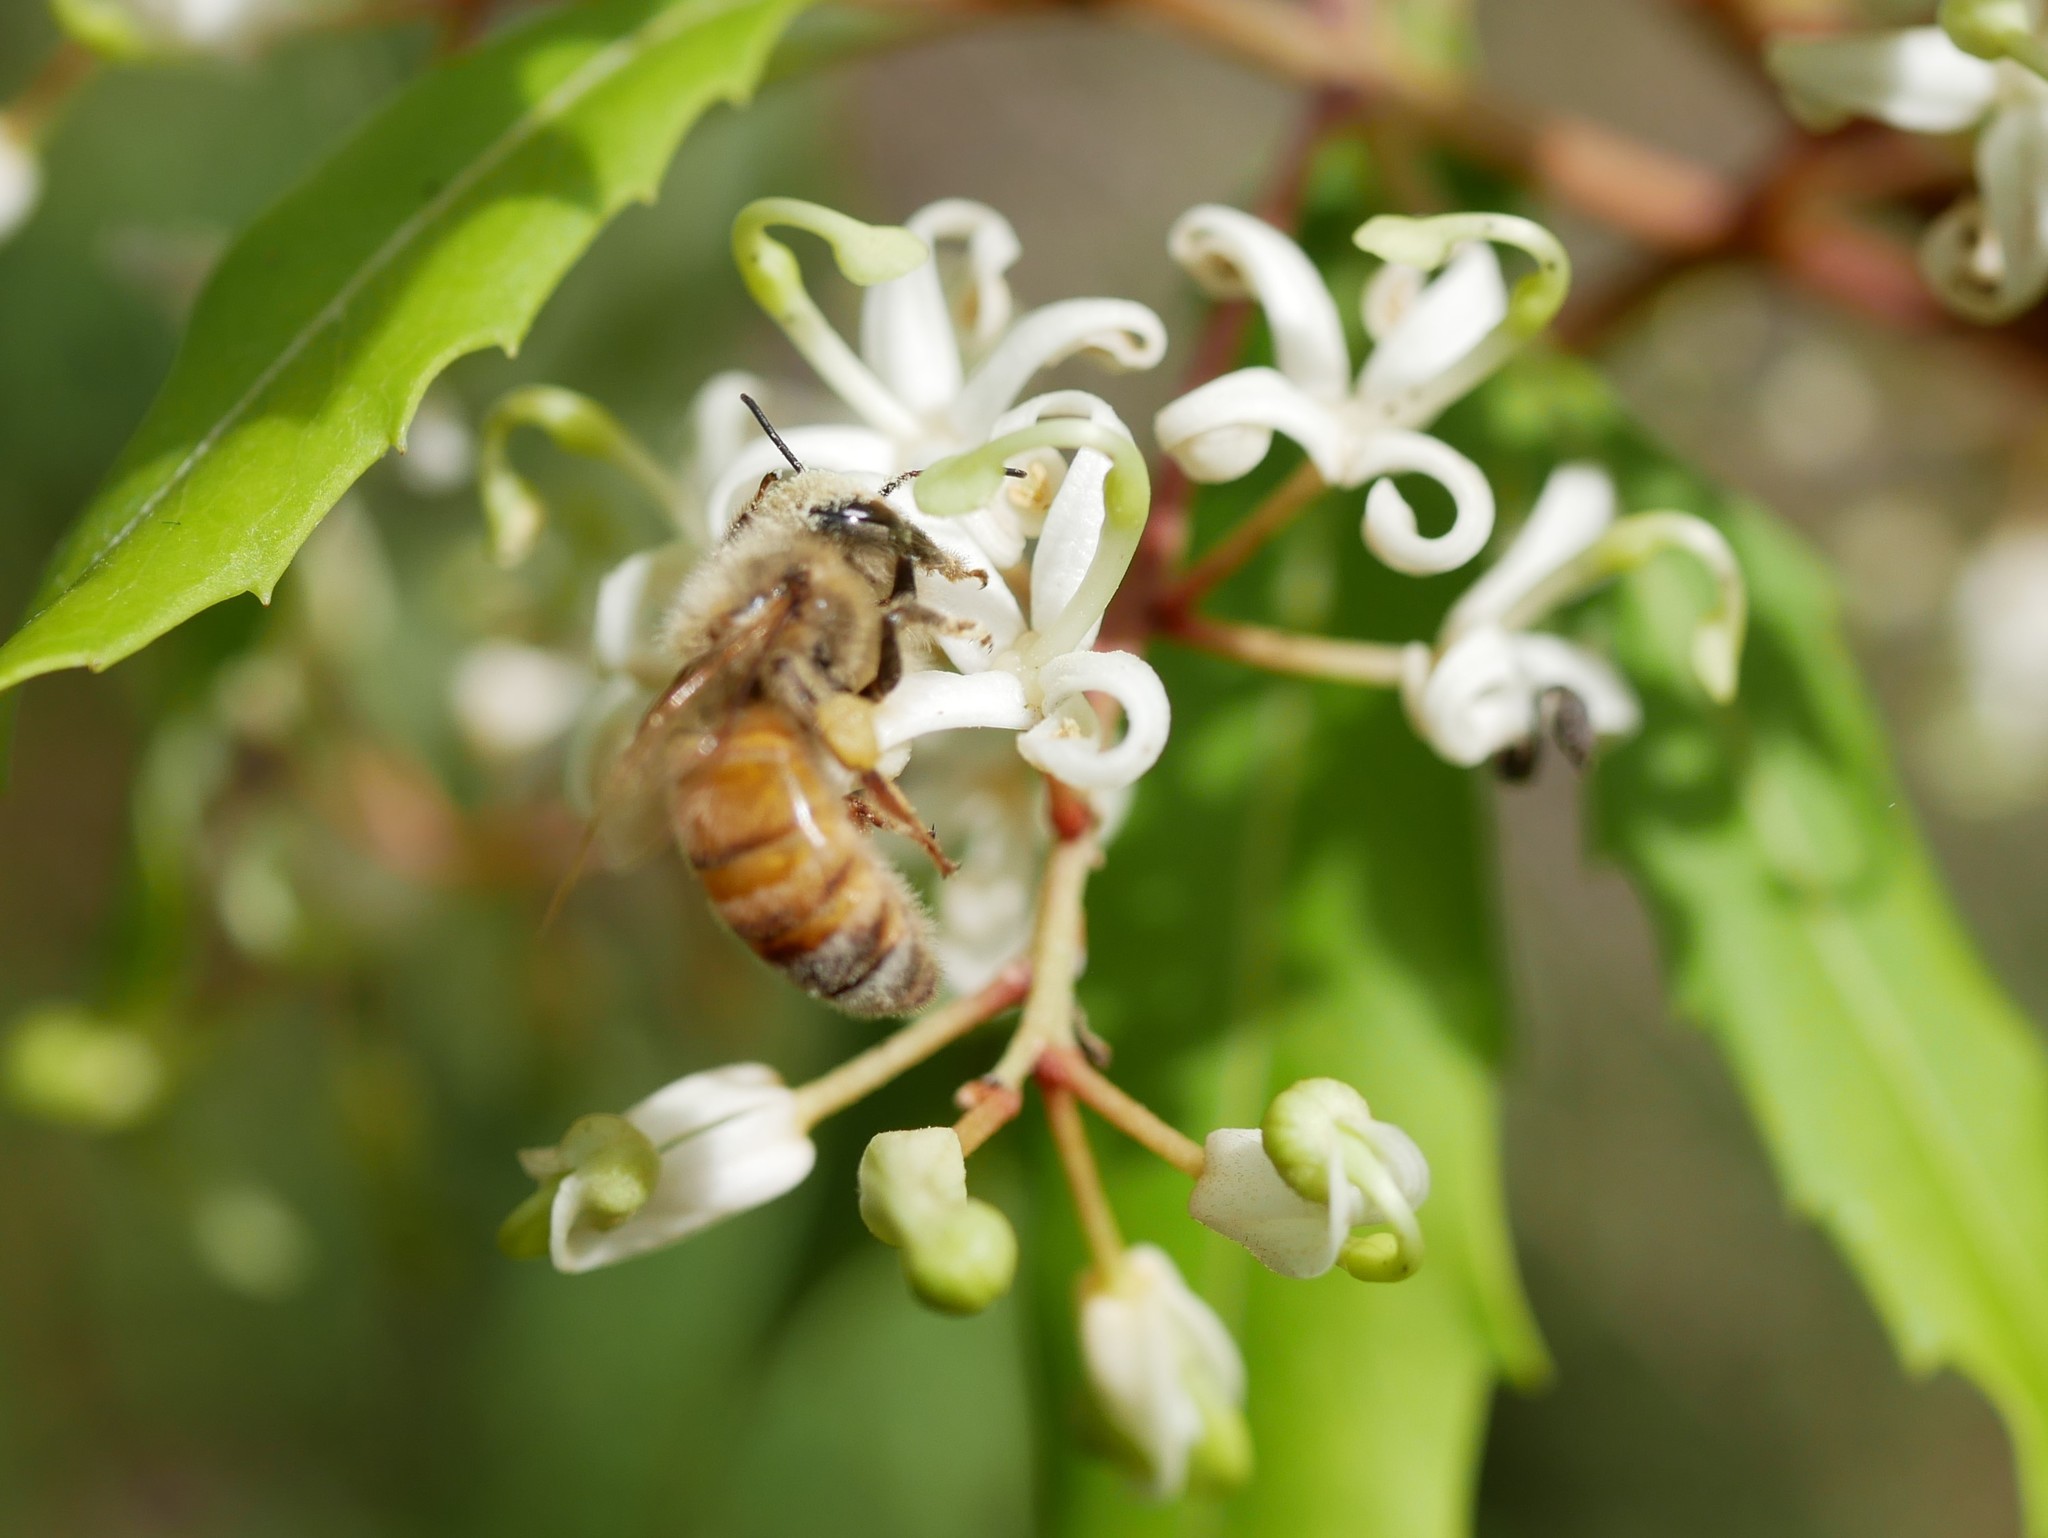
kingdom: Animalia
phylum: Arthropoda
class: Insecta
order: Hymenoptera
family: Apidae
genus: Apis
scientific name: Apis mellifera
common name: Honey bee
